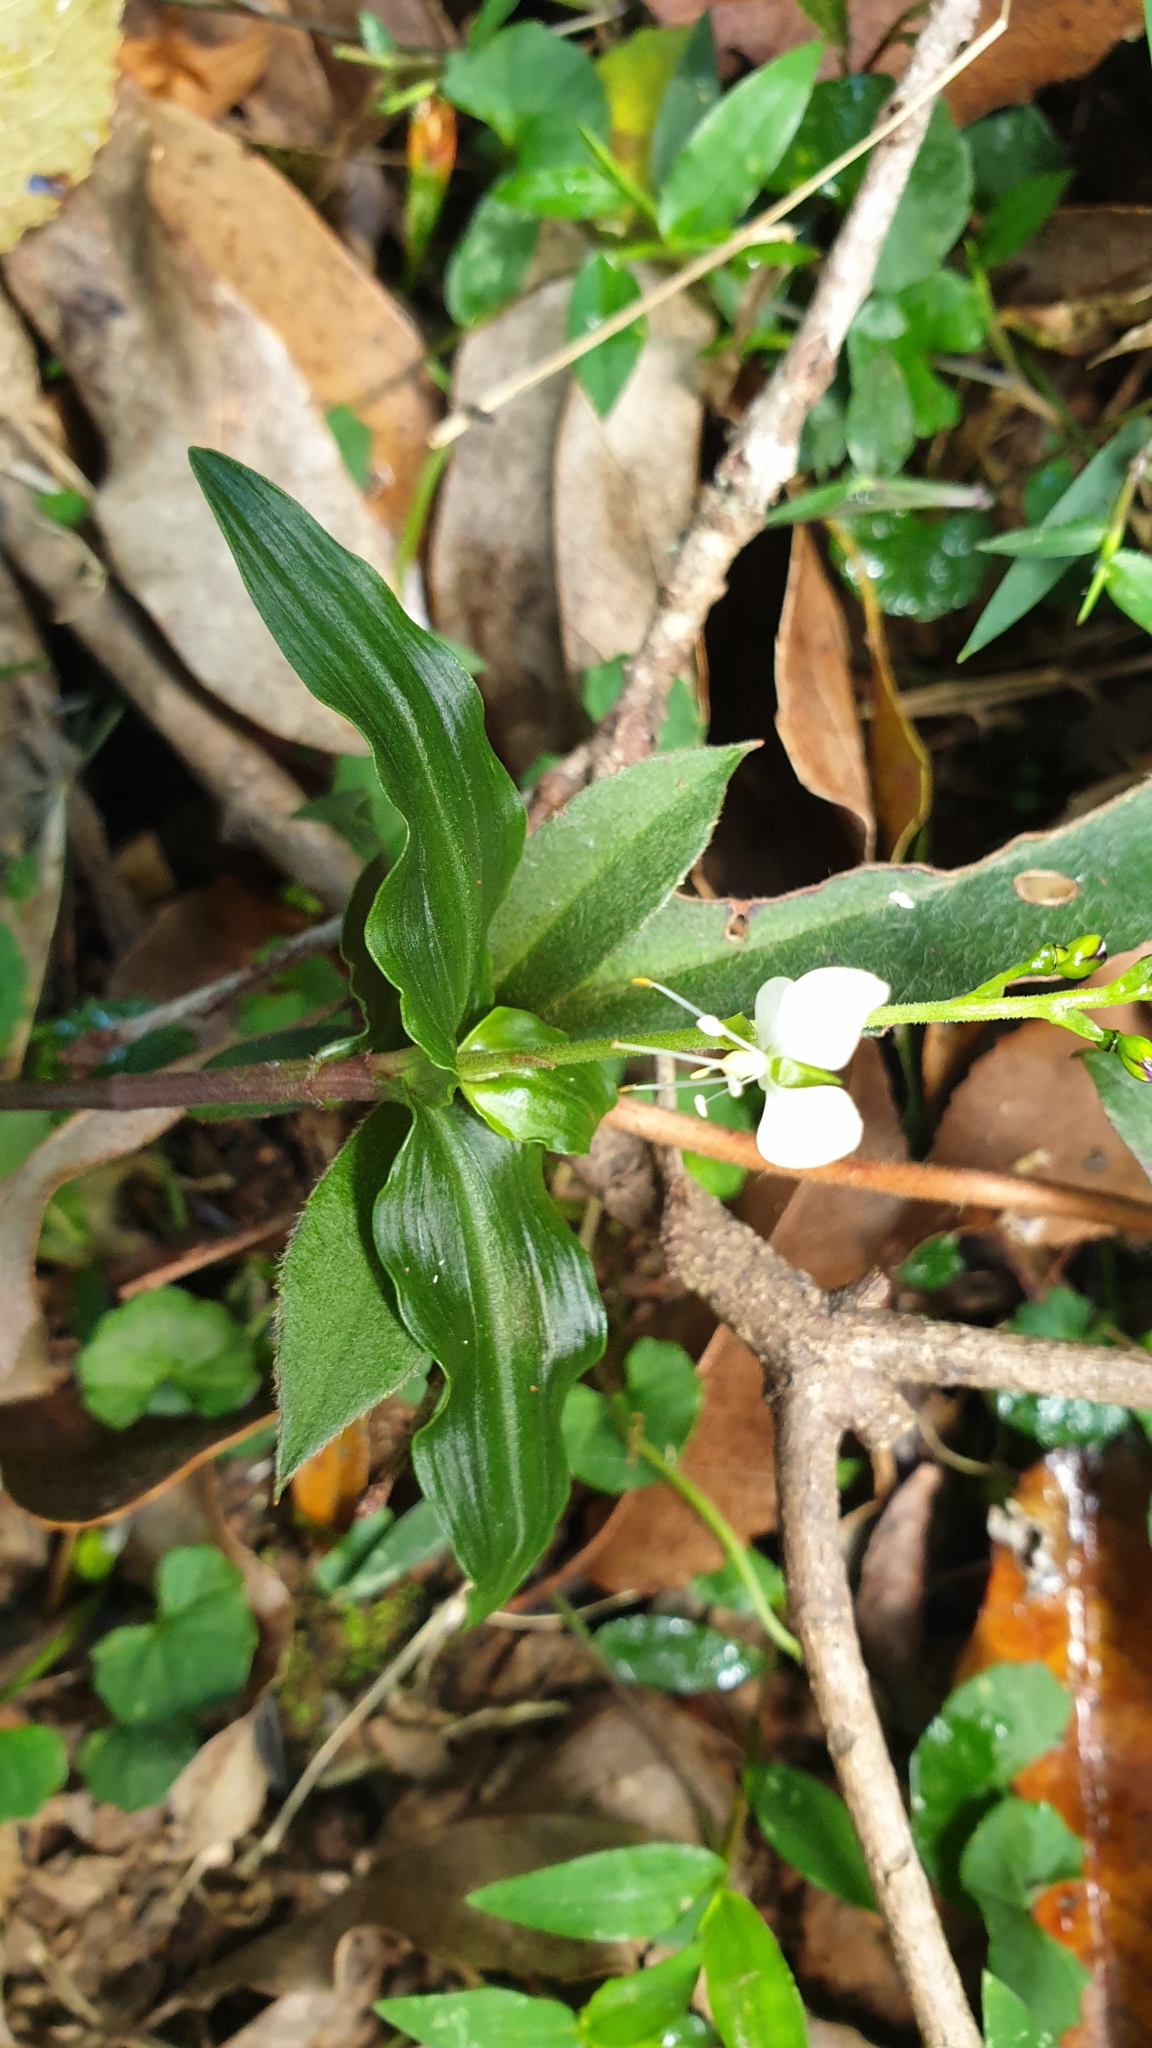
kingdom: Plantae
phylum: Tracheophyta
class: Liliopsida
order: Commelinales
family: Commelinaceae
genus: Aneilema
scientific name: Aneilema acuminatum
